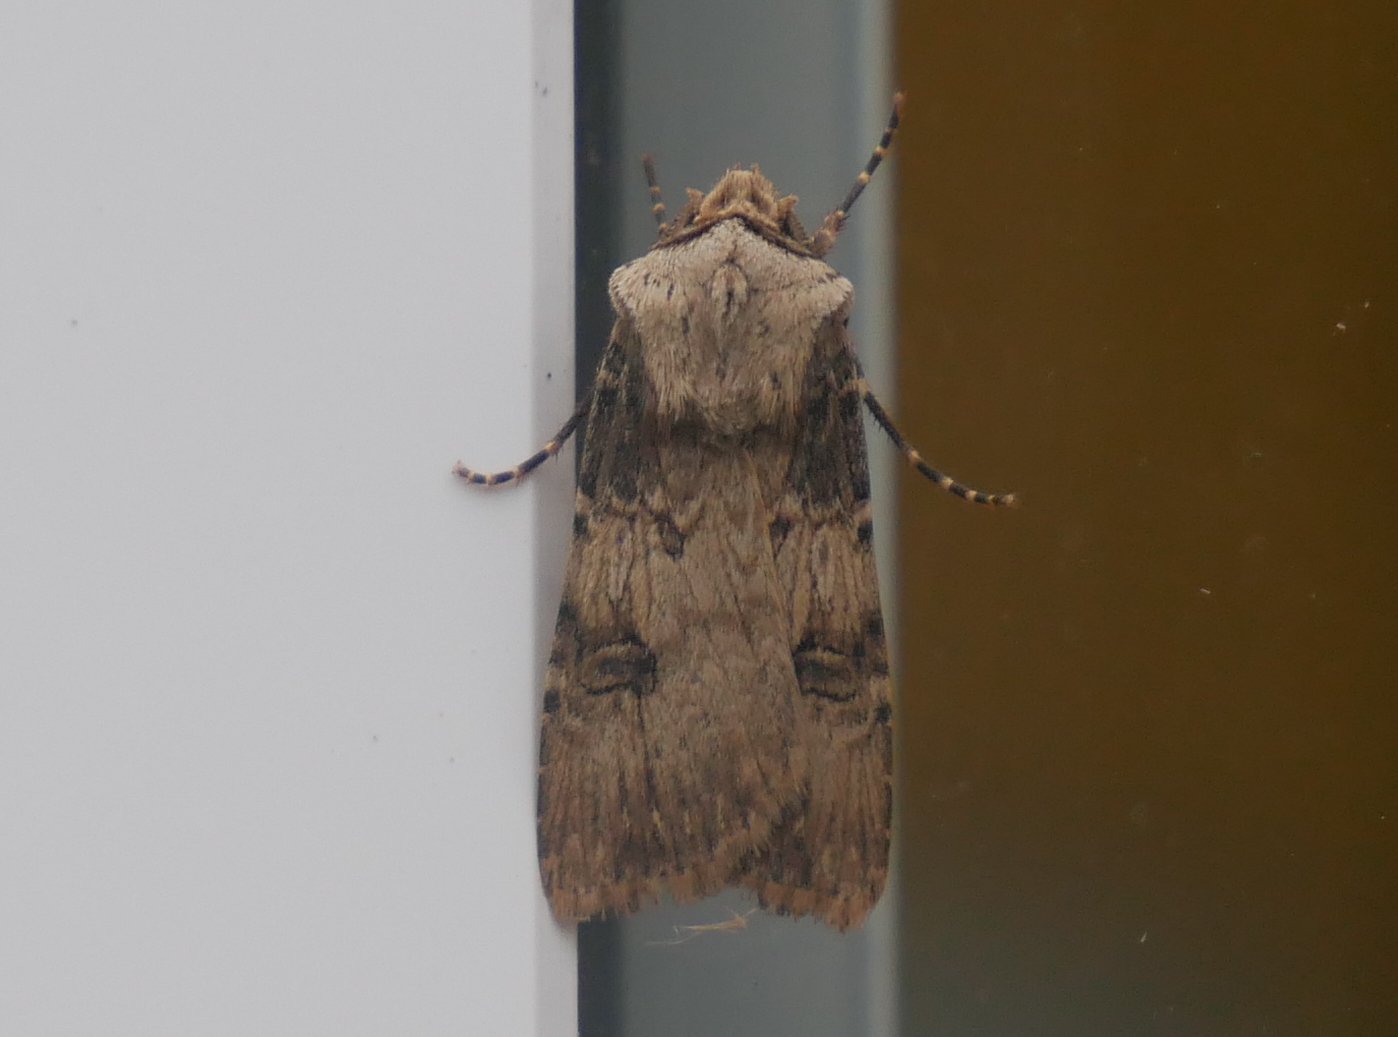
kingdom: Animalia
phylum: Arthropoda
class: Insecta
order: Lepidoptera
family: Noctuidae
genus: Agrotis
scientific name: Agrotis puta
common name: Shuttle-shaped dart
